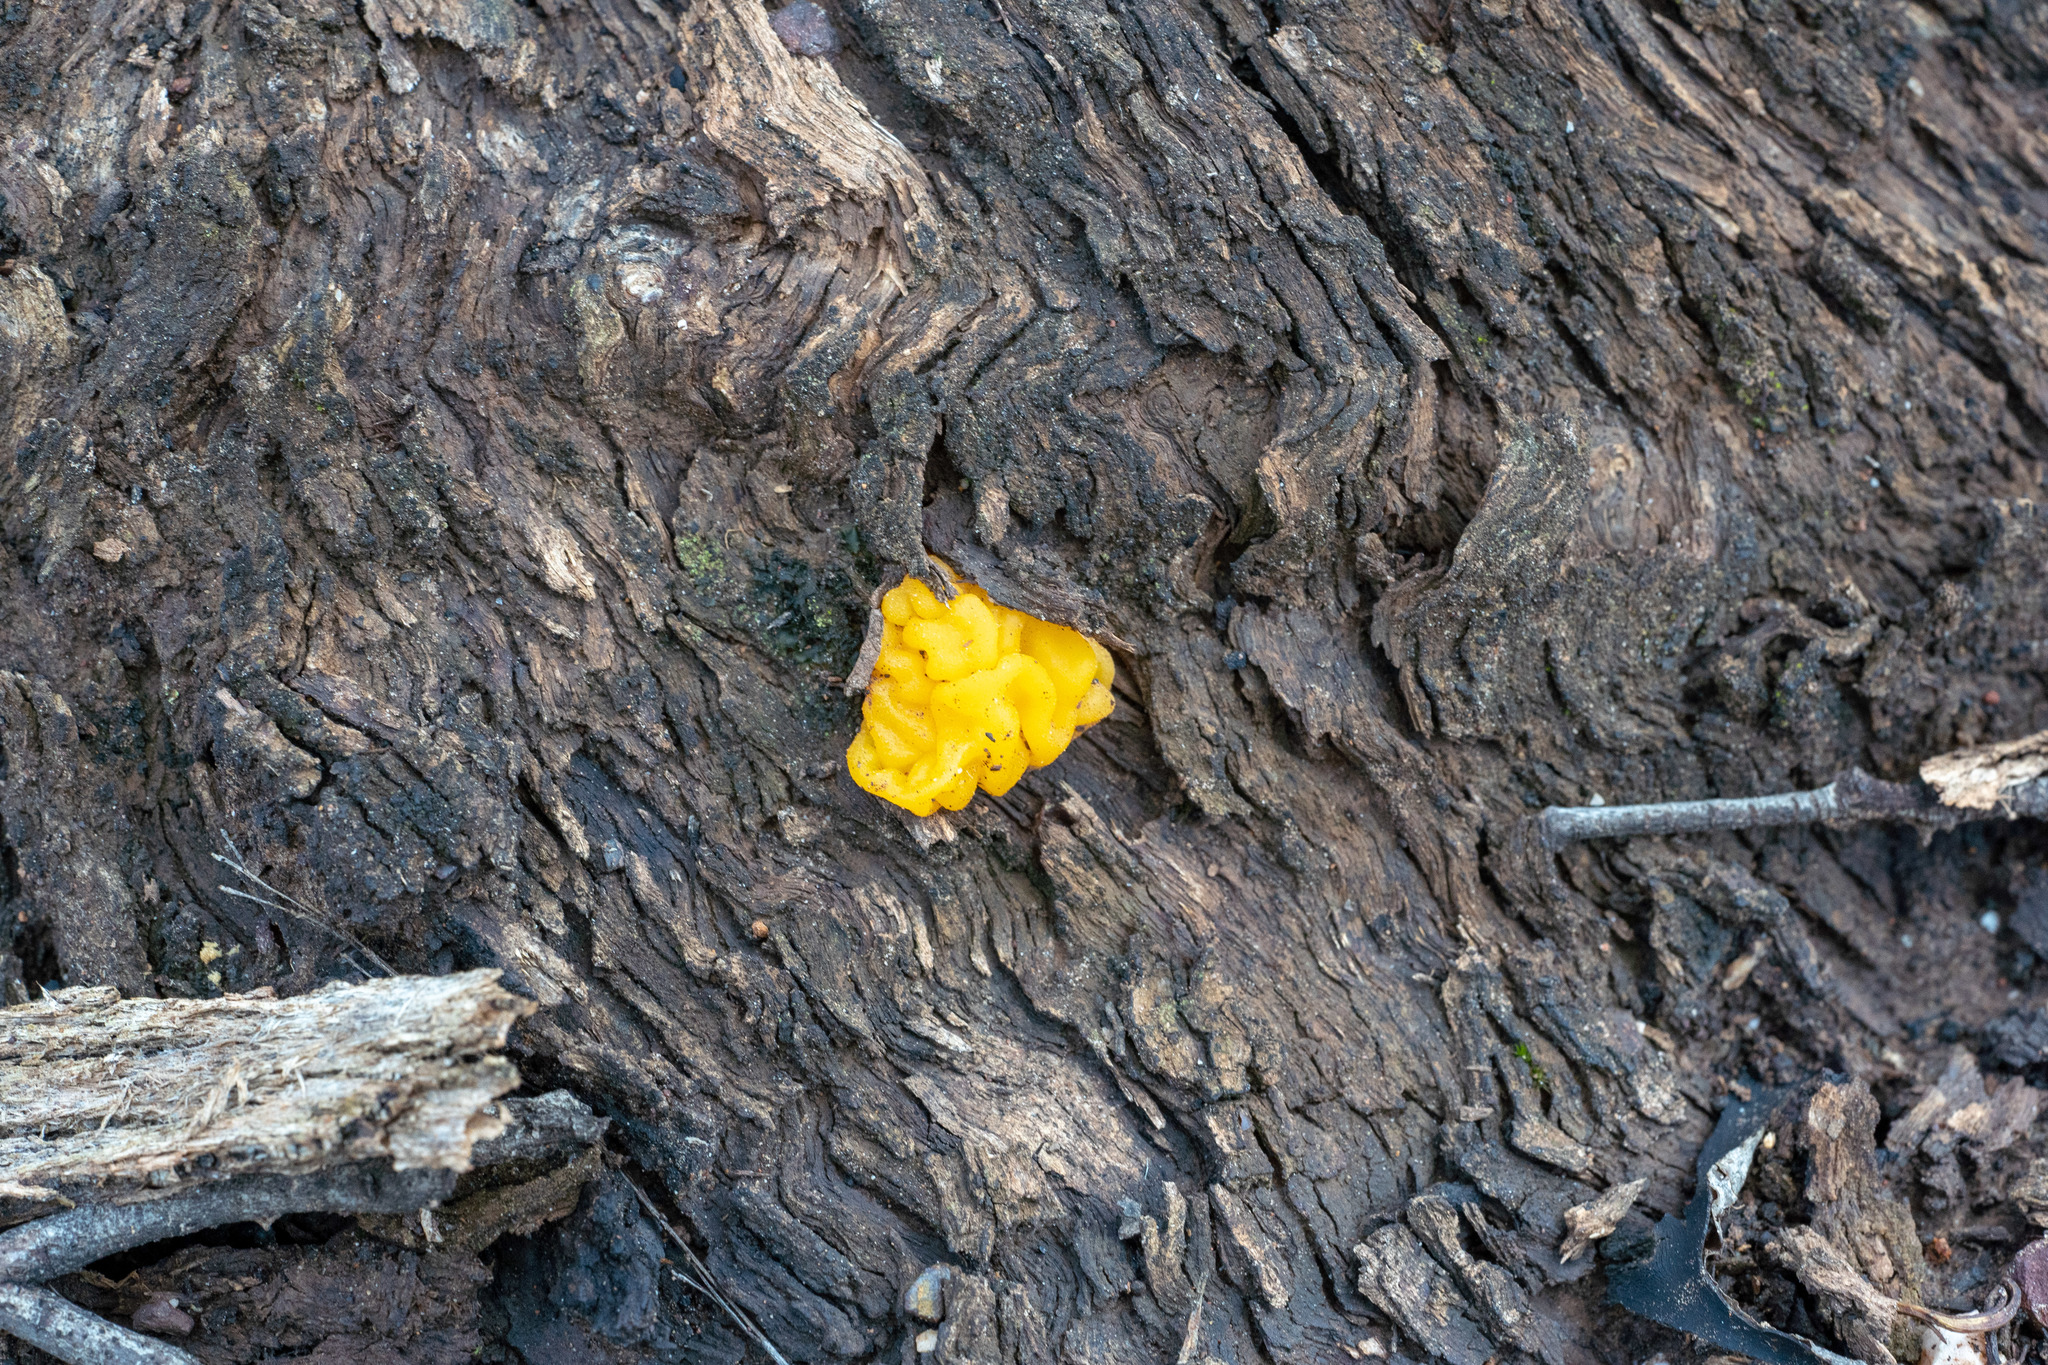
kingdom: Fungi
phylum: Basidiomycota
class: Tremellomycetes
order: Tremellales
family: Tremellaceae
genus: Tremella
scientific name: Tremella mesenterica
